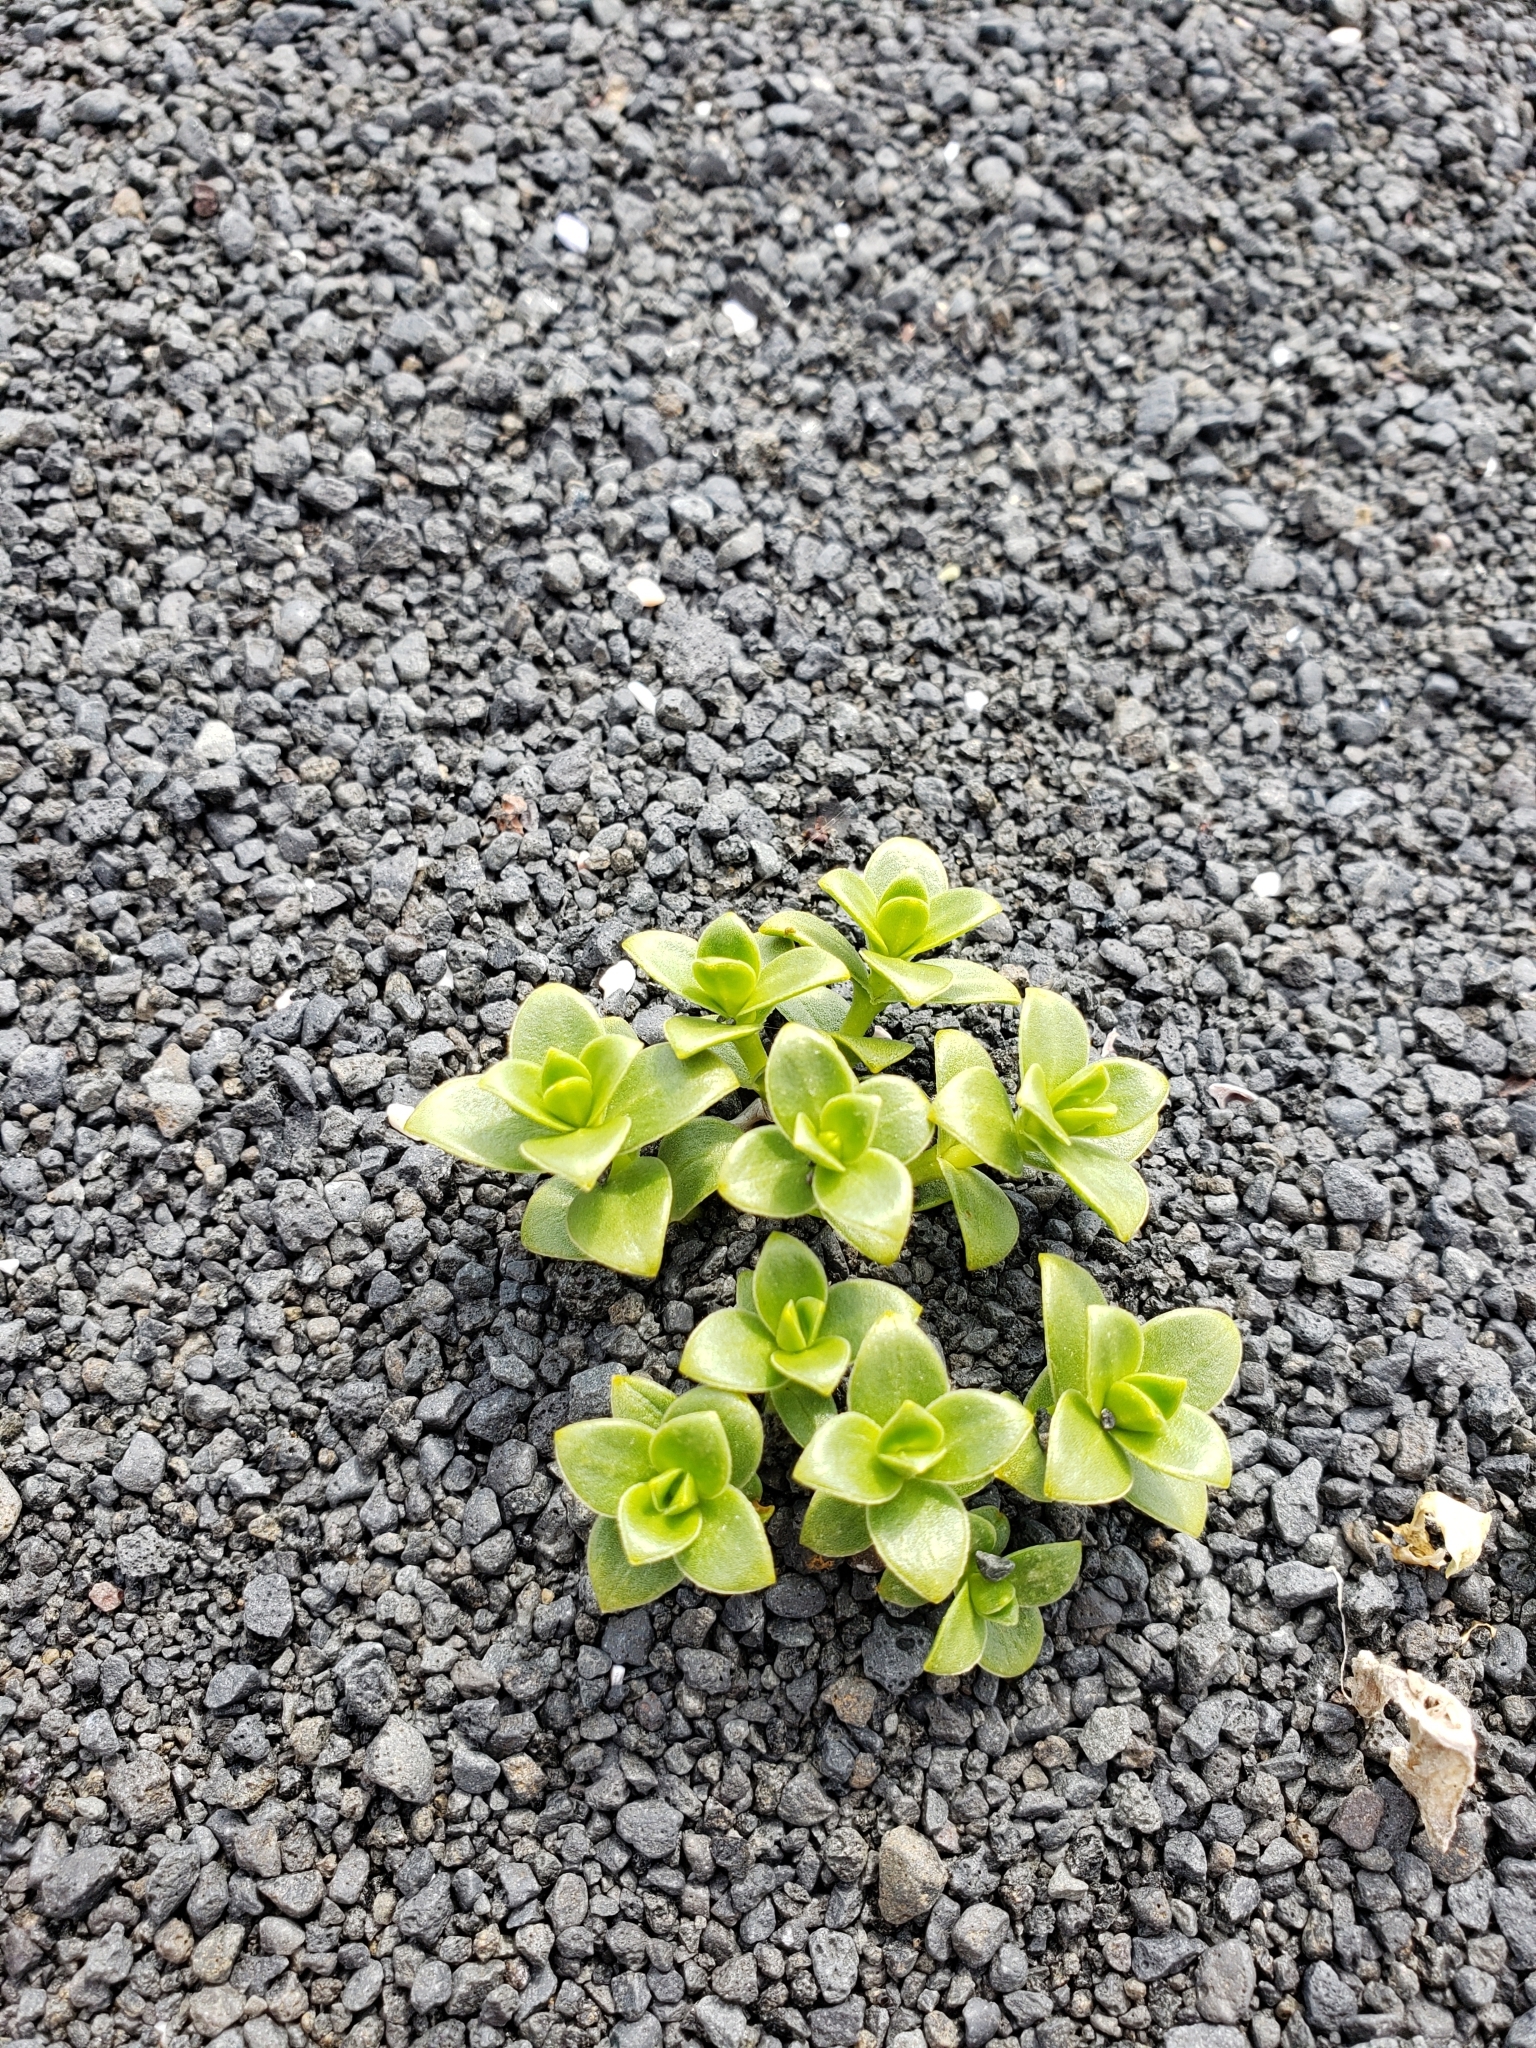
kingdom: Plantae
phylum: Tracheophyta
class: Magnoliopsida
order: Caryophyllales
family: Caryophyllaceae
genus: Honckenya
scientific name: Honckenya peploides
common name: Sea sandwort
